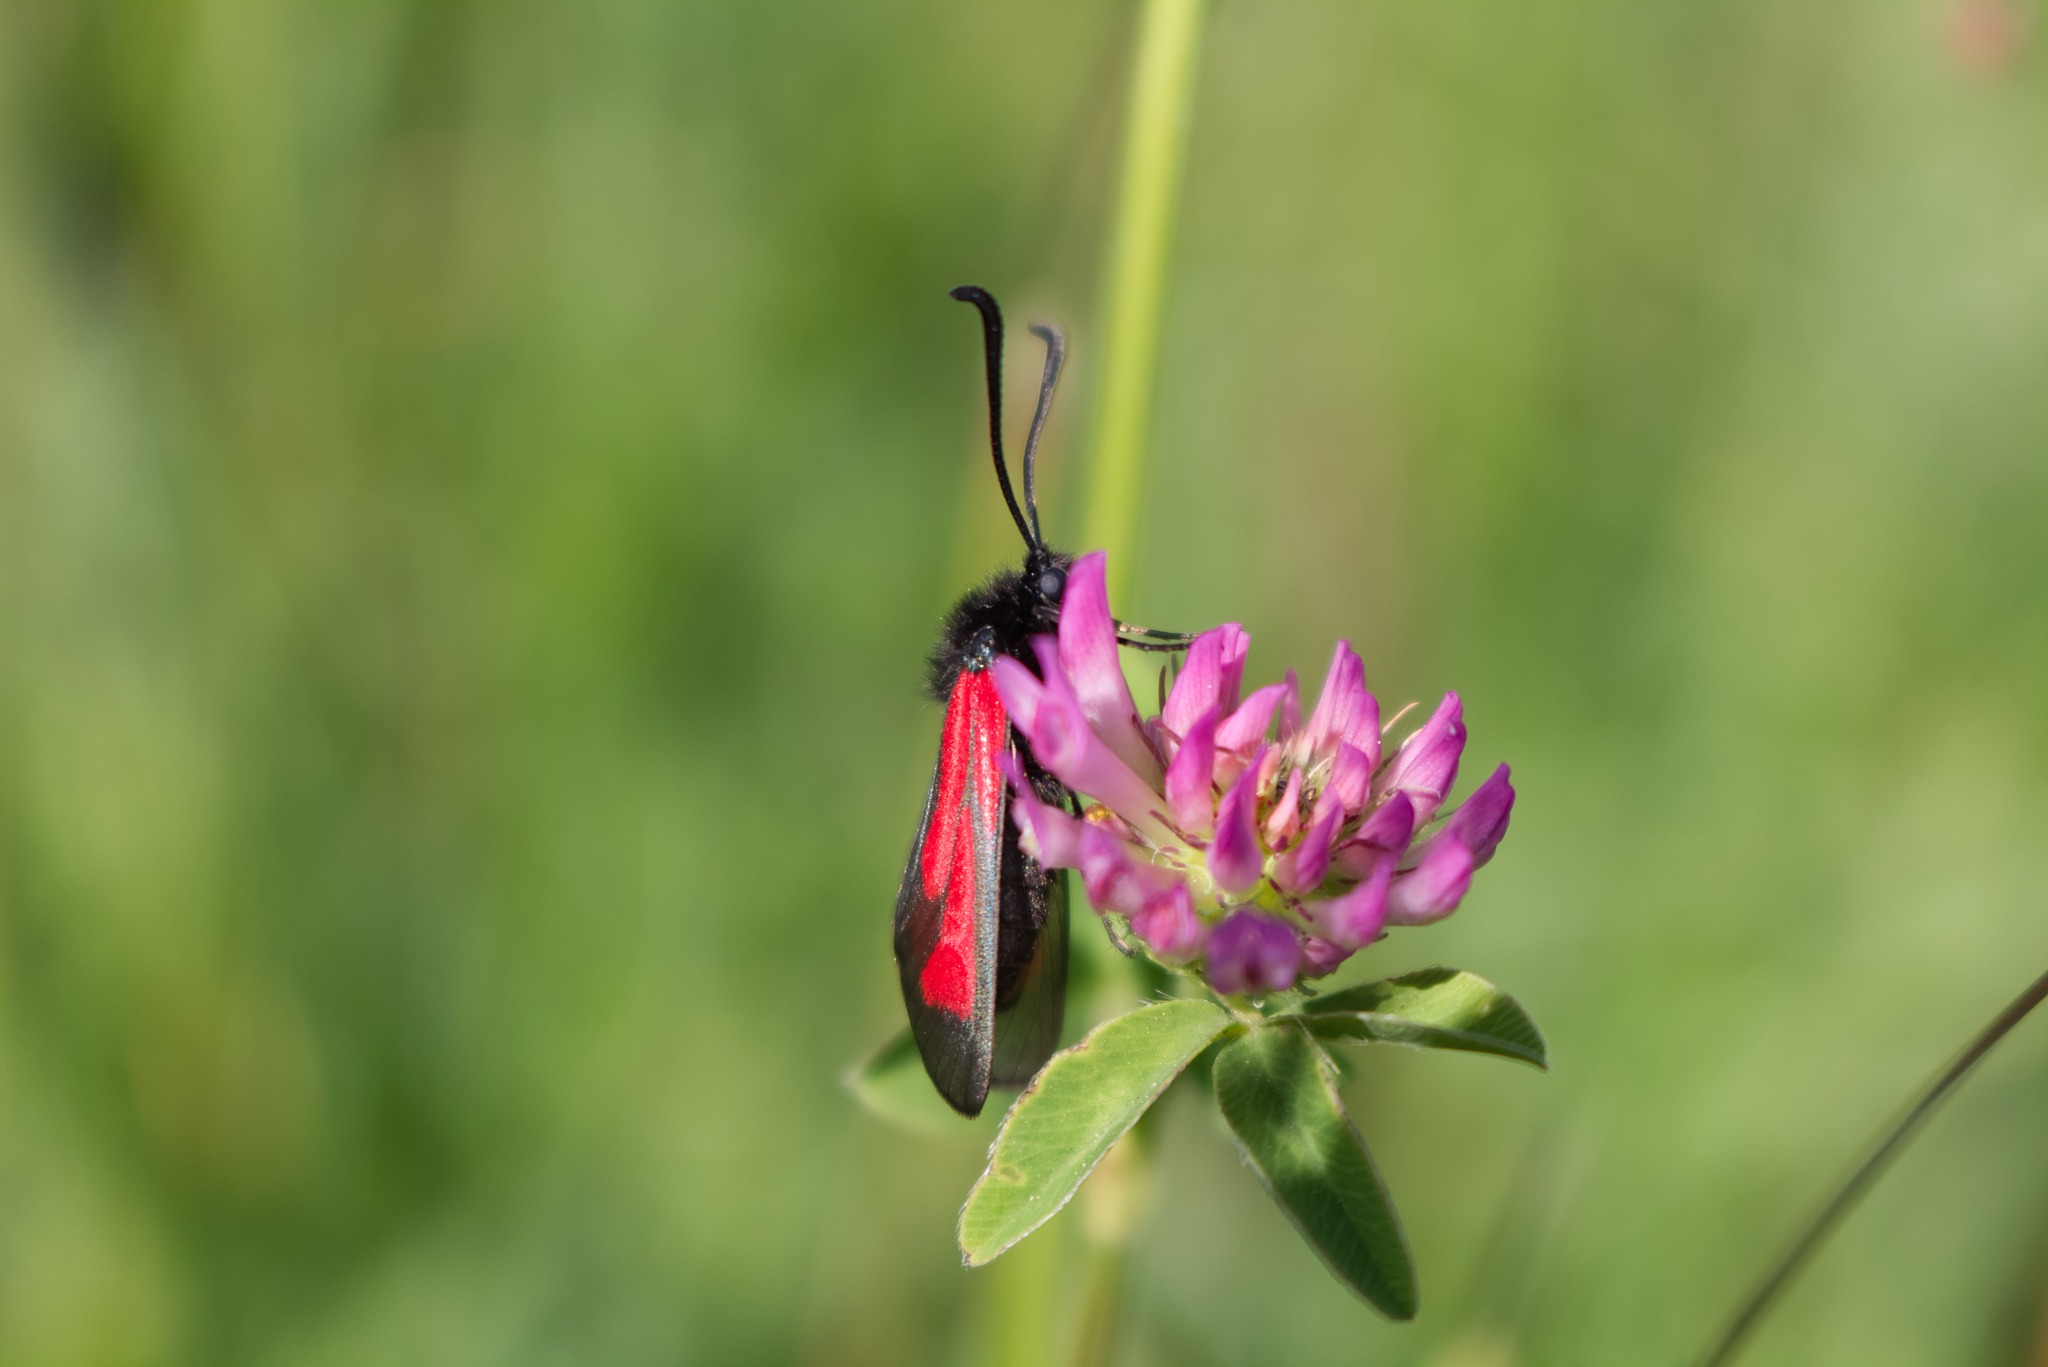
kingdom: Animalia
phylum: Arthropoda
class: Insecta
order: Lepidoptera
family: Zygaenidae
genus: Zygaena
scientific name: Zygaena
